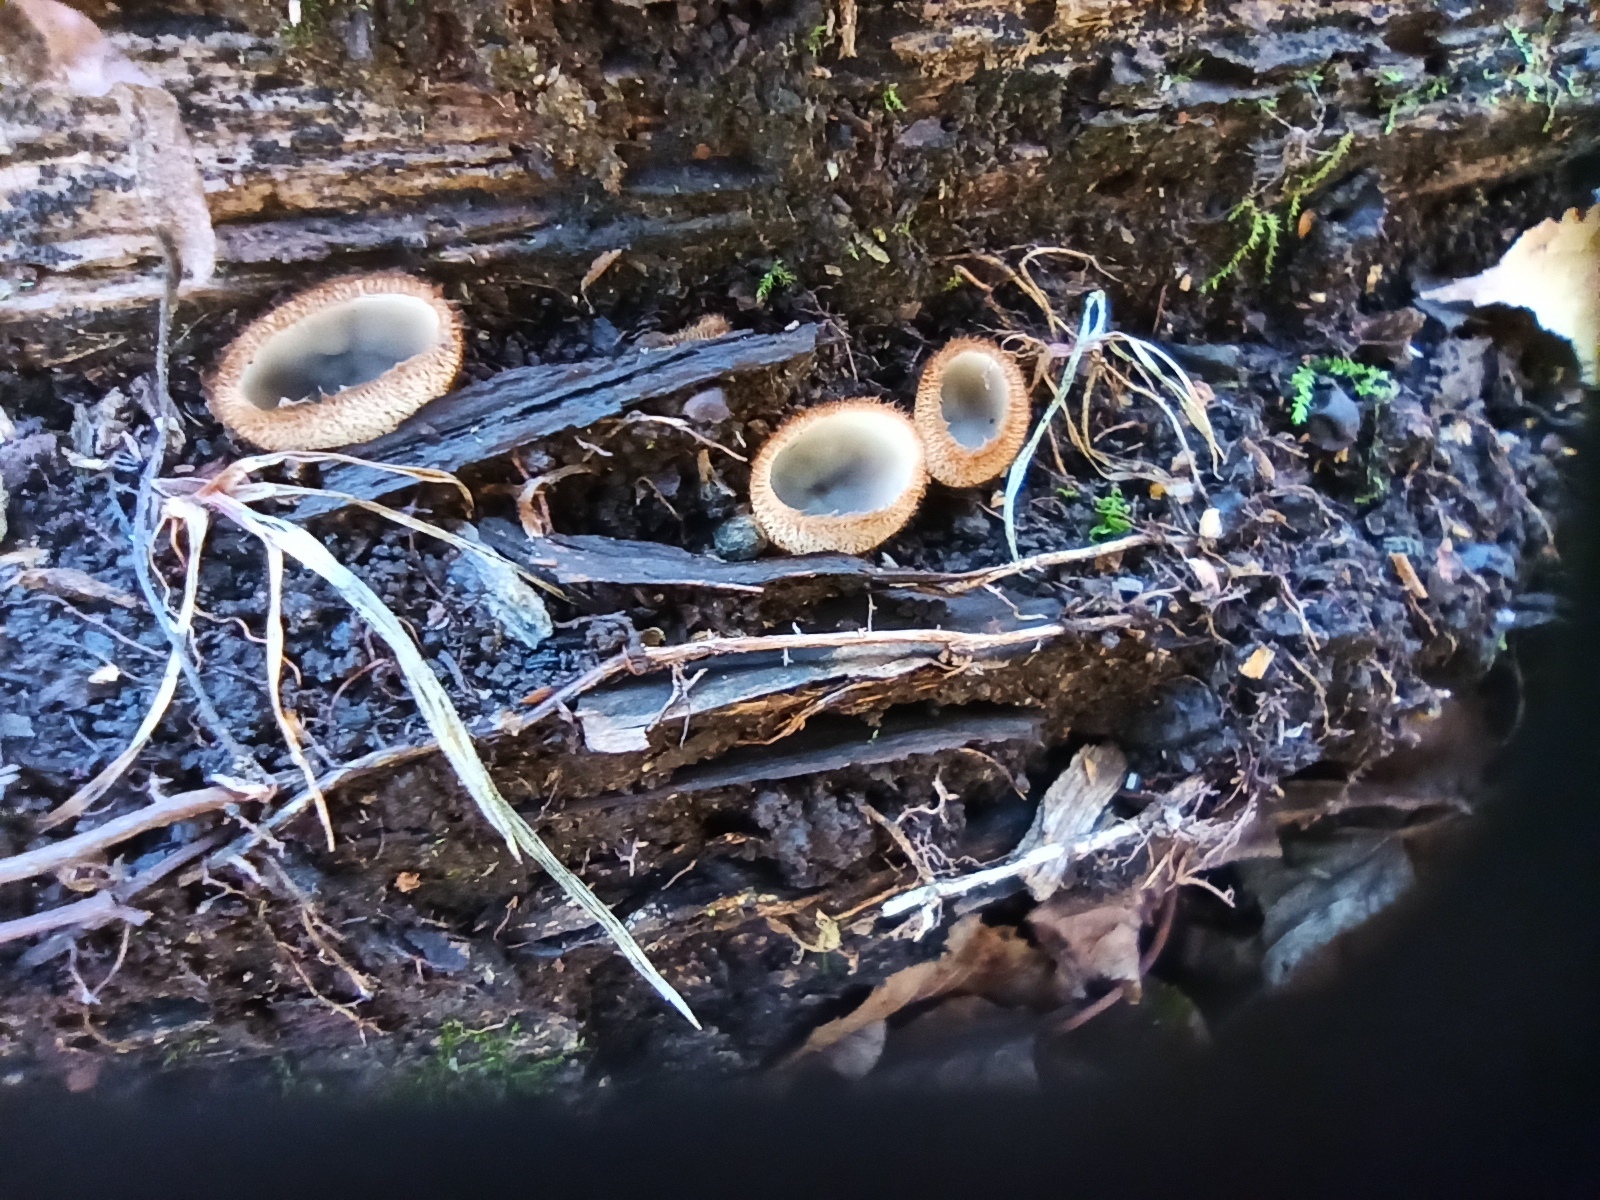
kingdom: Fungi
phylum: Ascomycota
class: Pezizomycetes
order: Pezizales
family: Pyronemataceae
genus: Humaria
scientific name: Humaria hemisphaerica
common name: Glazed cup
